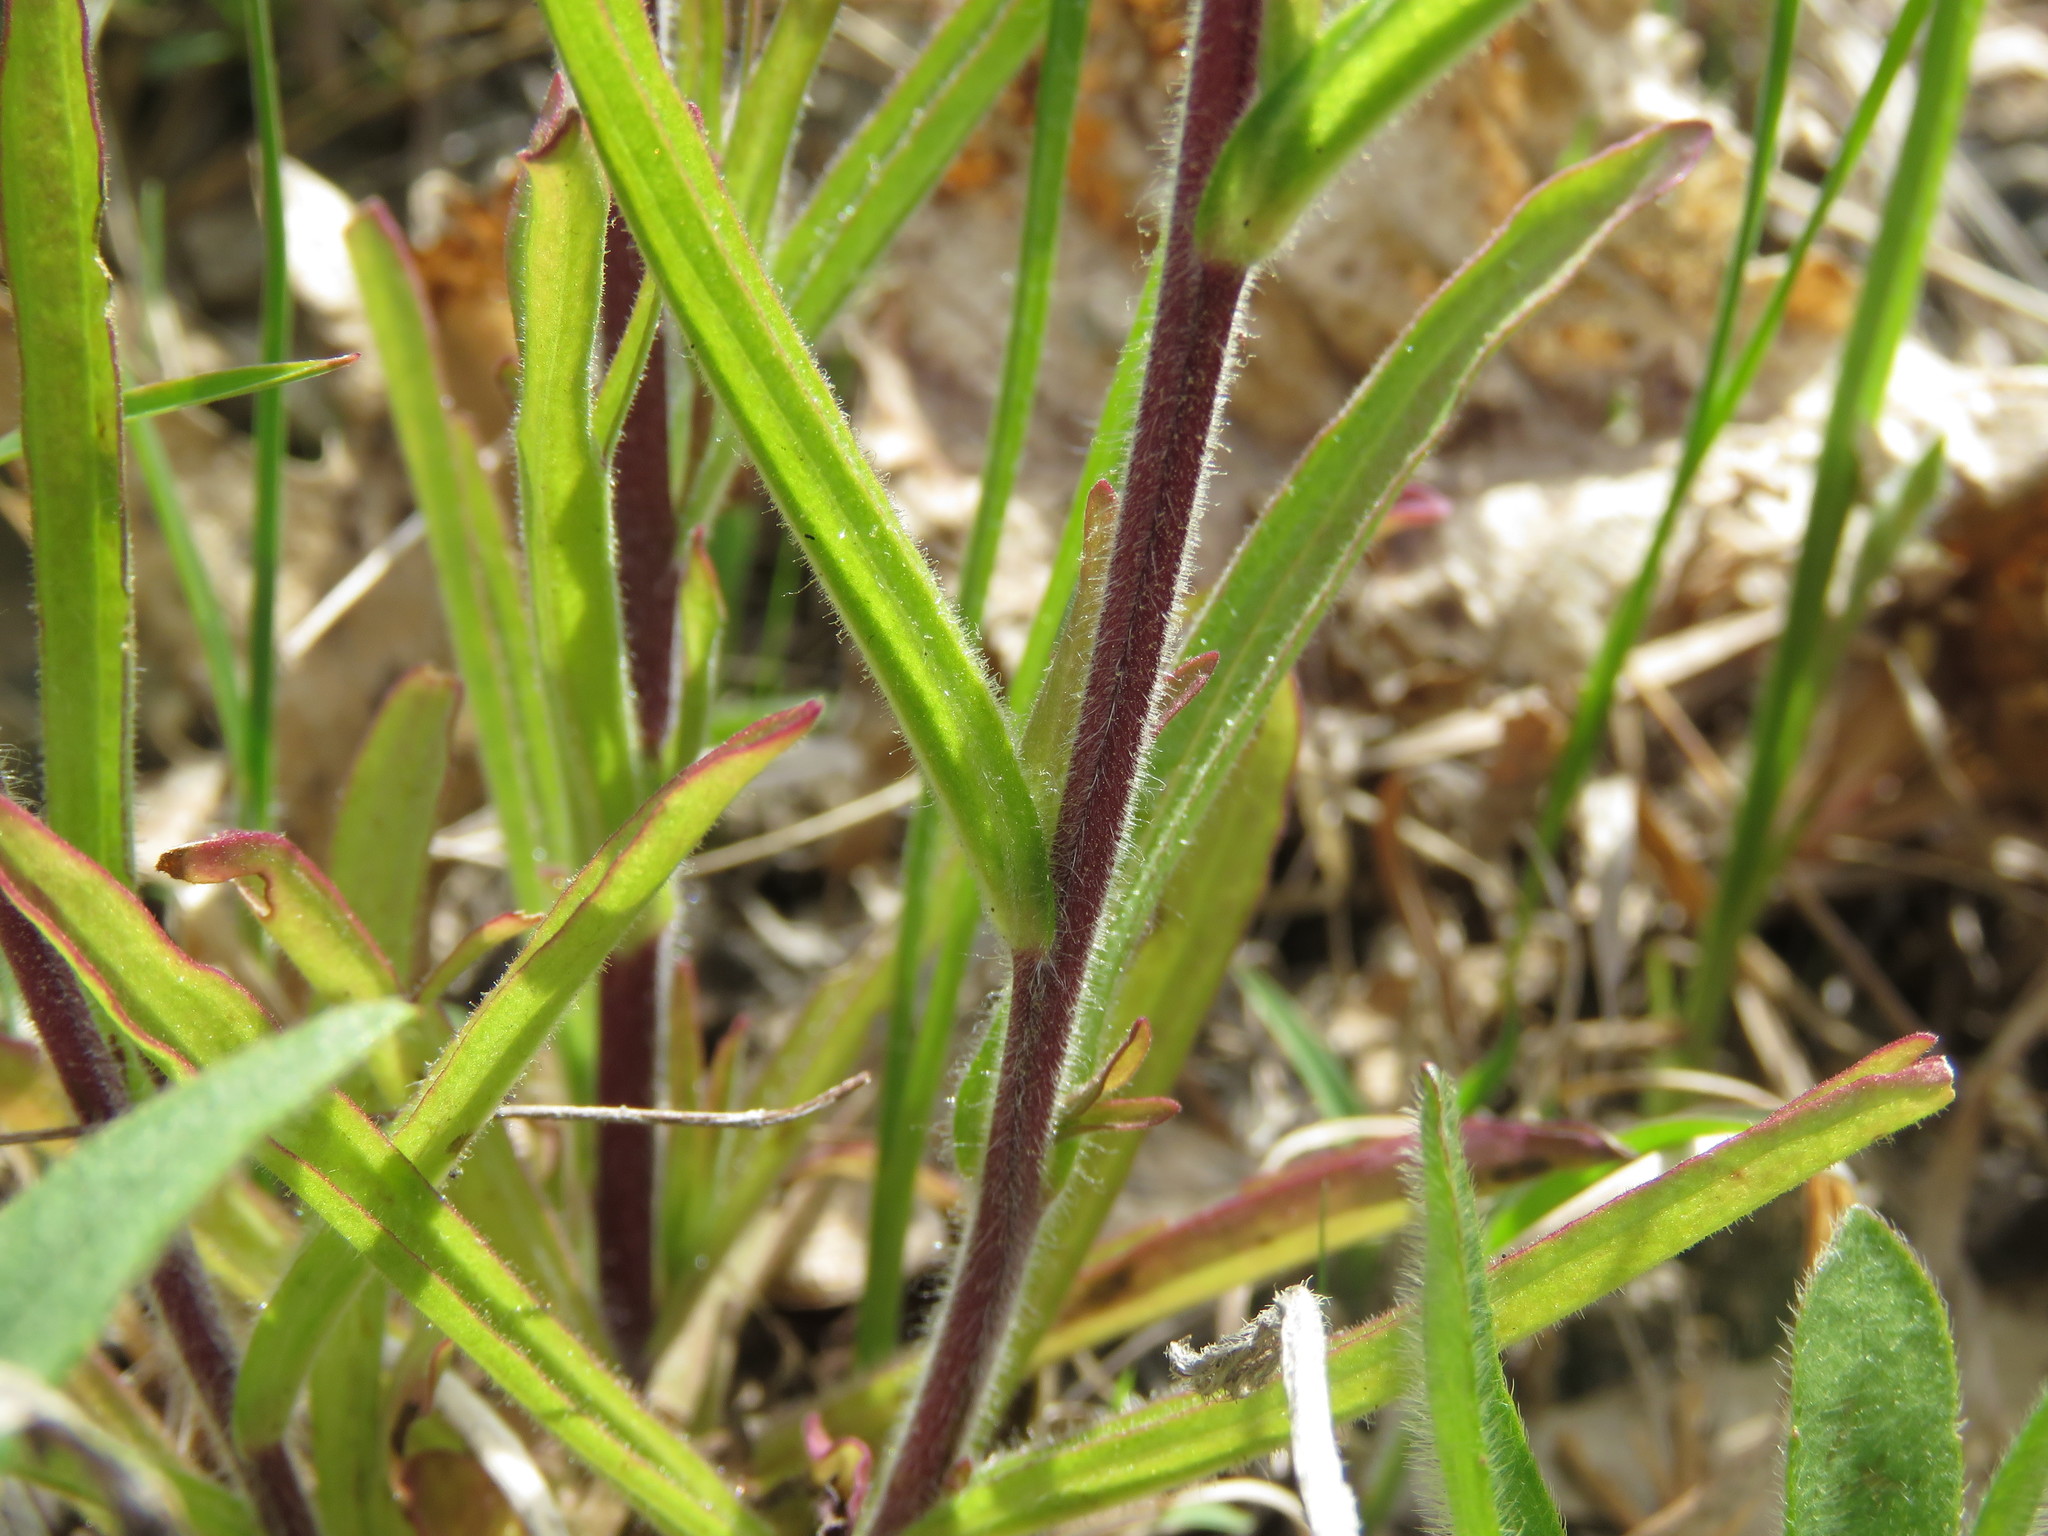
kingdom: Plantae
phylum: Tracheophyta
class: Magnoliopsida
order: Lamiales
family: Orobanchaceae
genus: Castilleja
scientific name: Castilleja coccinea
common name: Scarlet paintbrush
